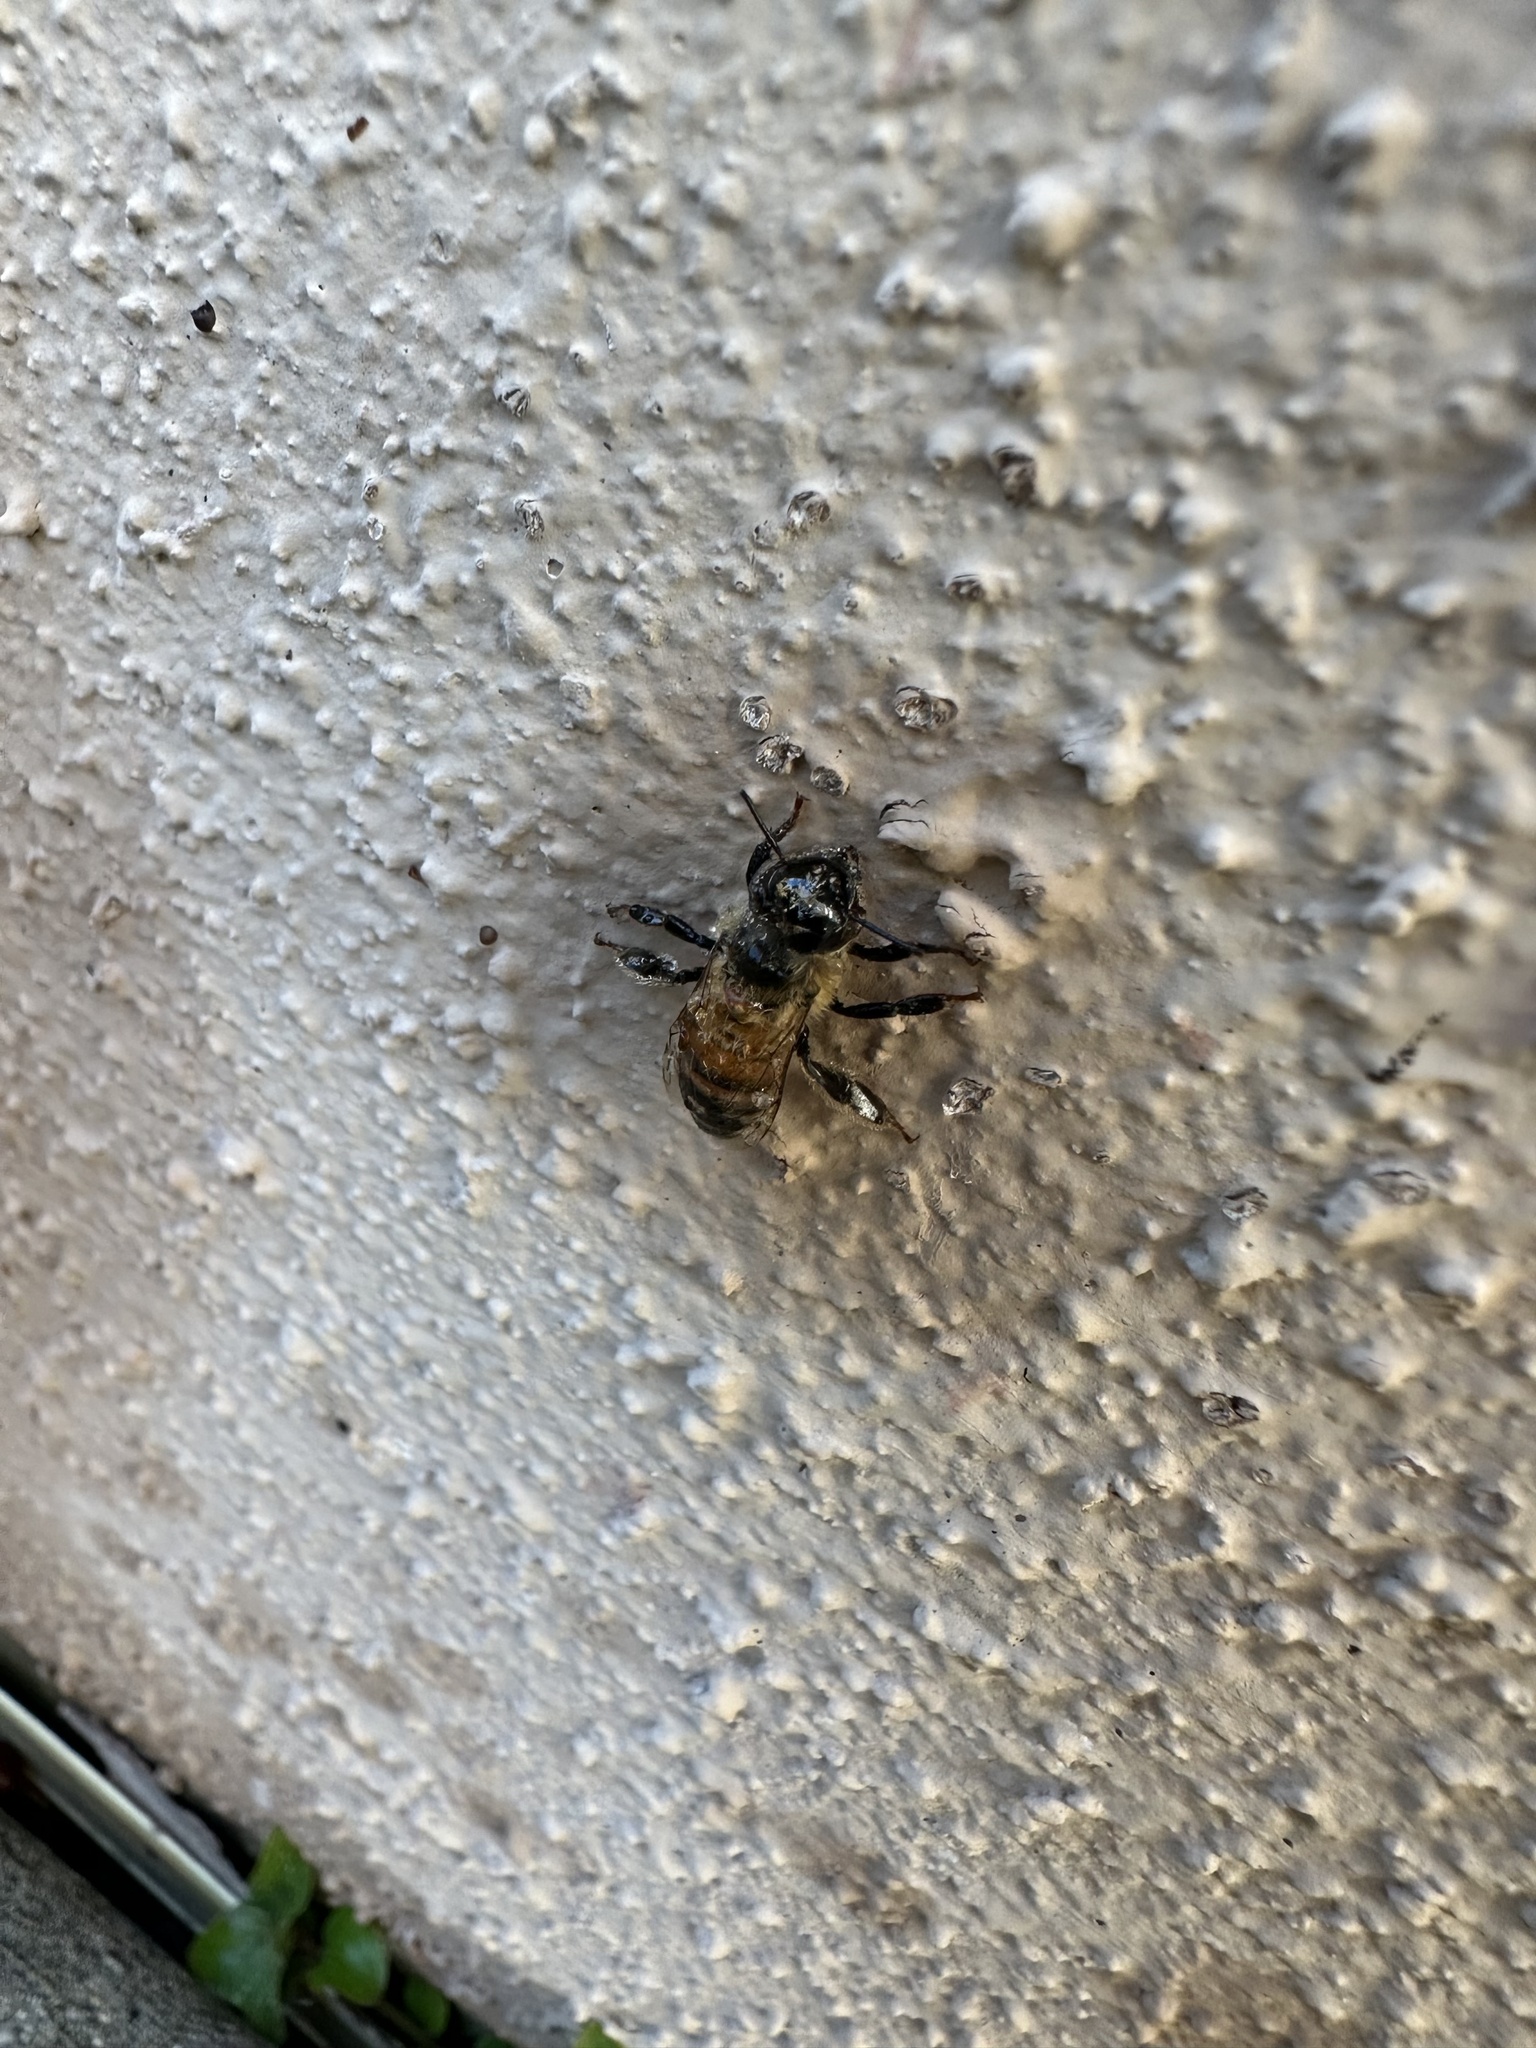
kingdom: Animalia
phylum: Arthropoda
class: Insecta
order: Hymenoptera
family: Apidae
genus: Apis
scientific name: Apis mellifera
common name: Honey bee
